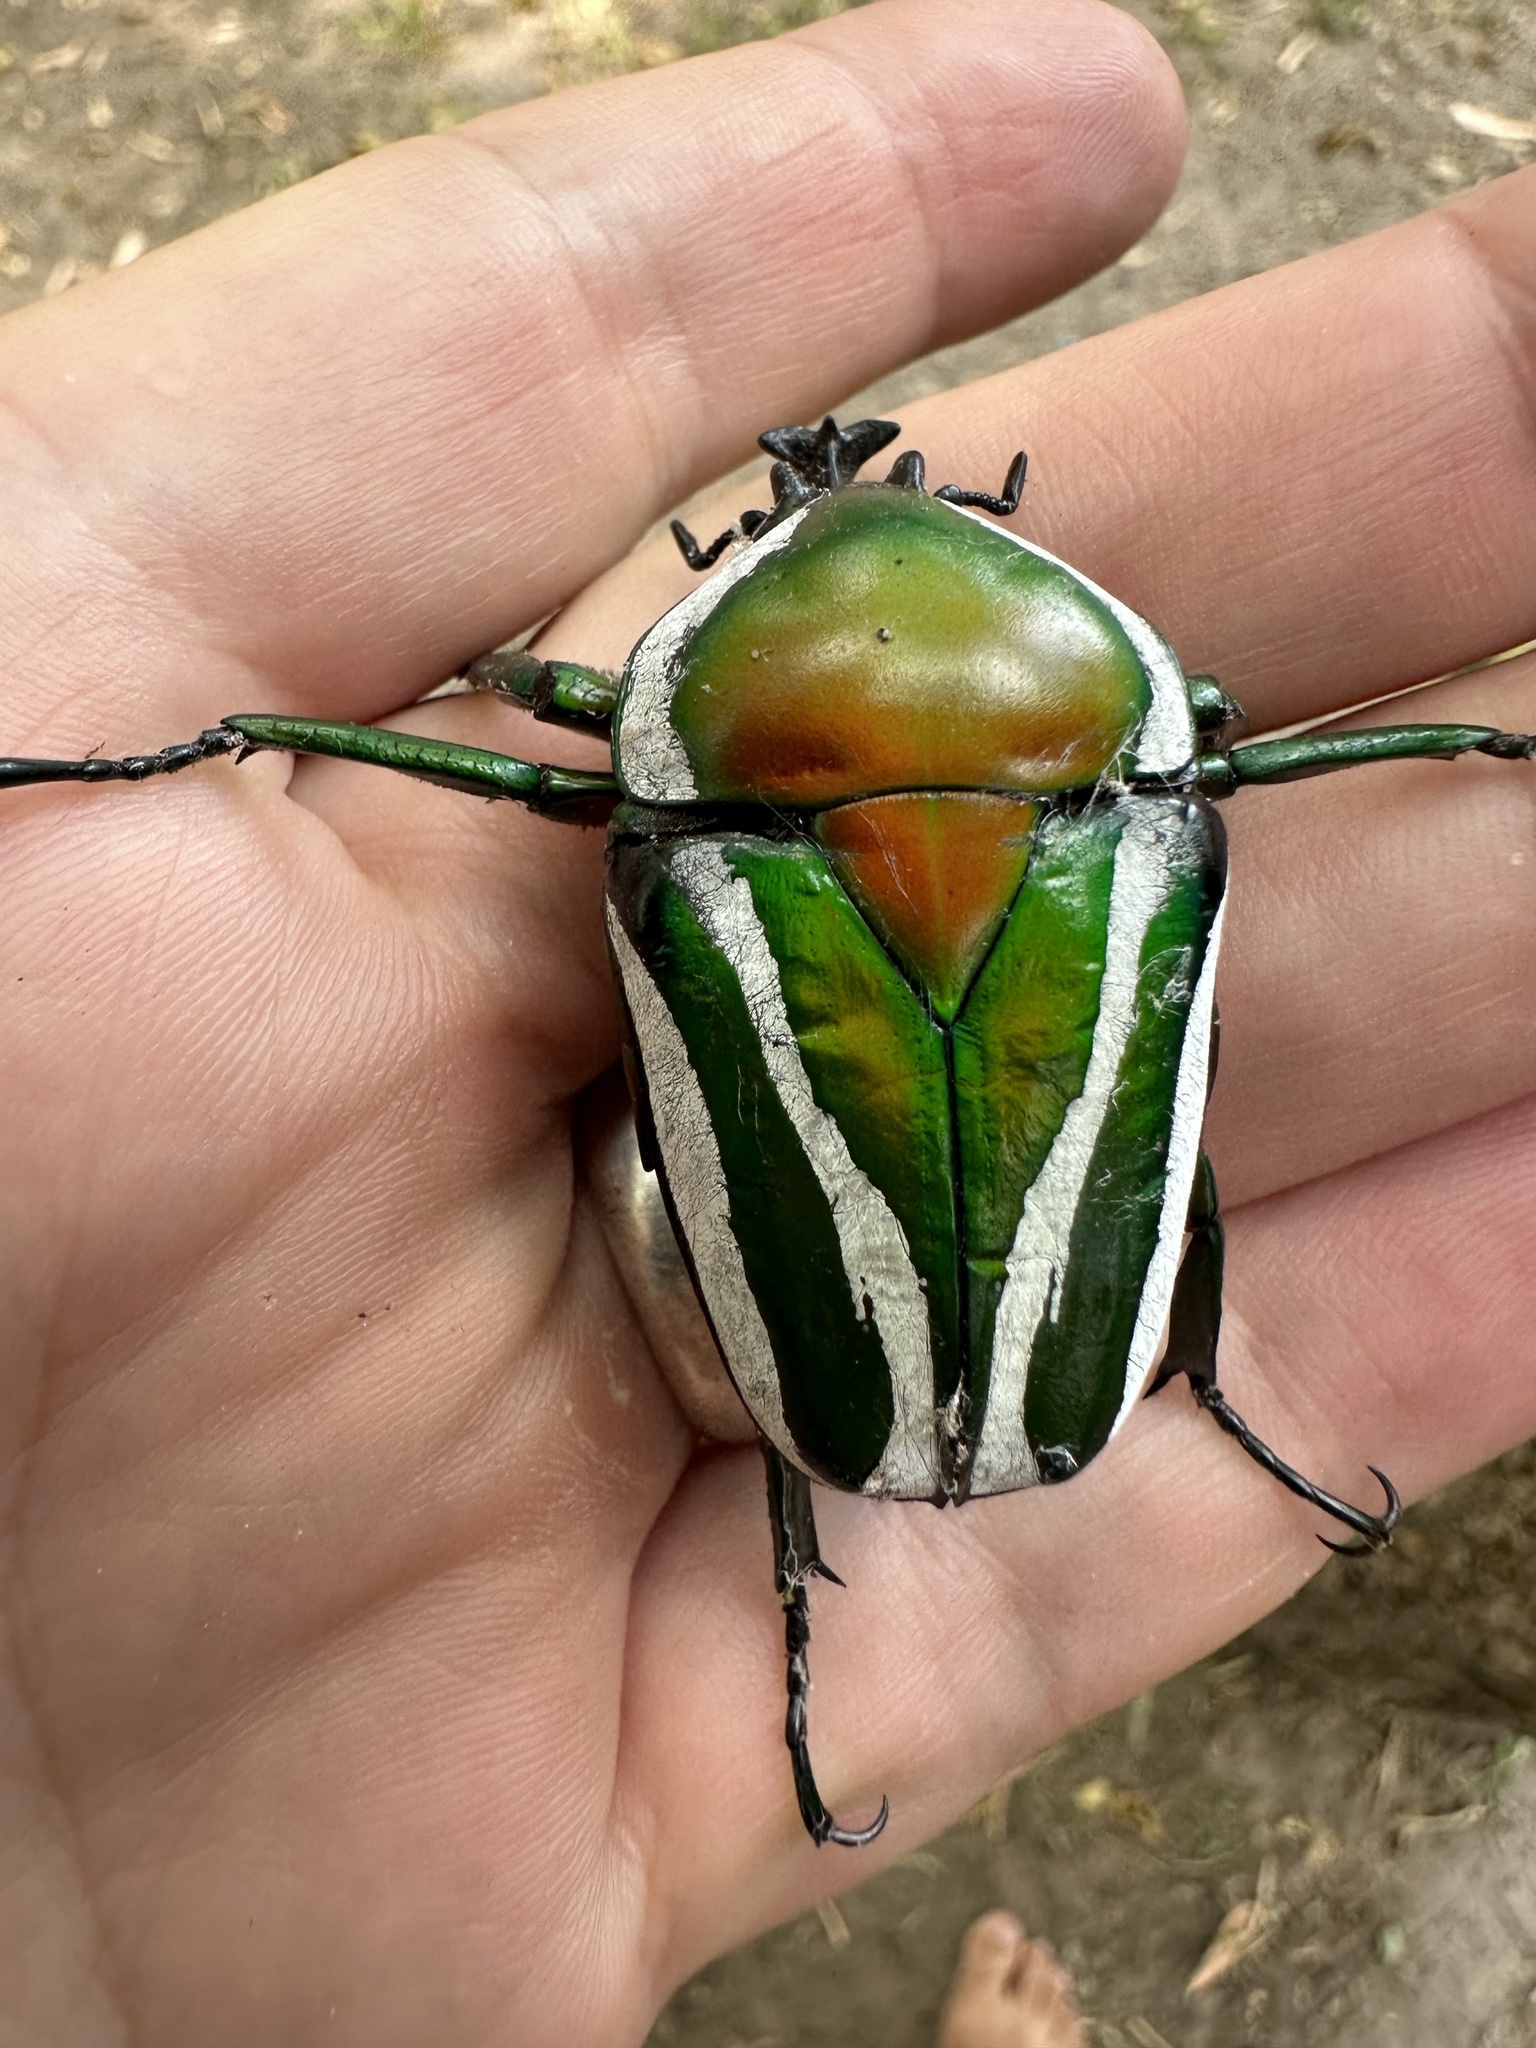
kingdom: Animalia
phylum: Arthropoda
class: Insecta
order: Coleoptera
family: Scarabaeidae
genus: Dicronorhina
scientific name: Dicronorhina derbyana
